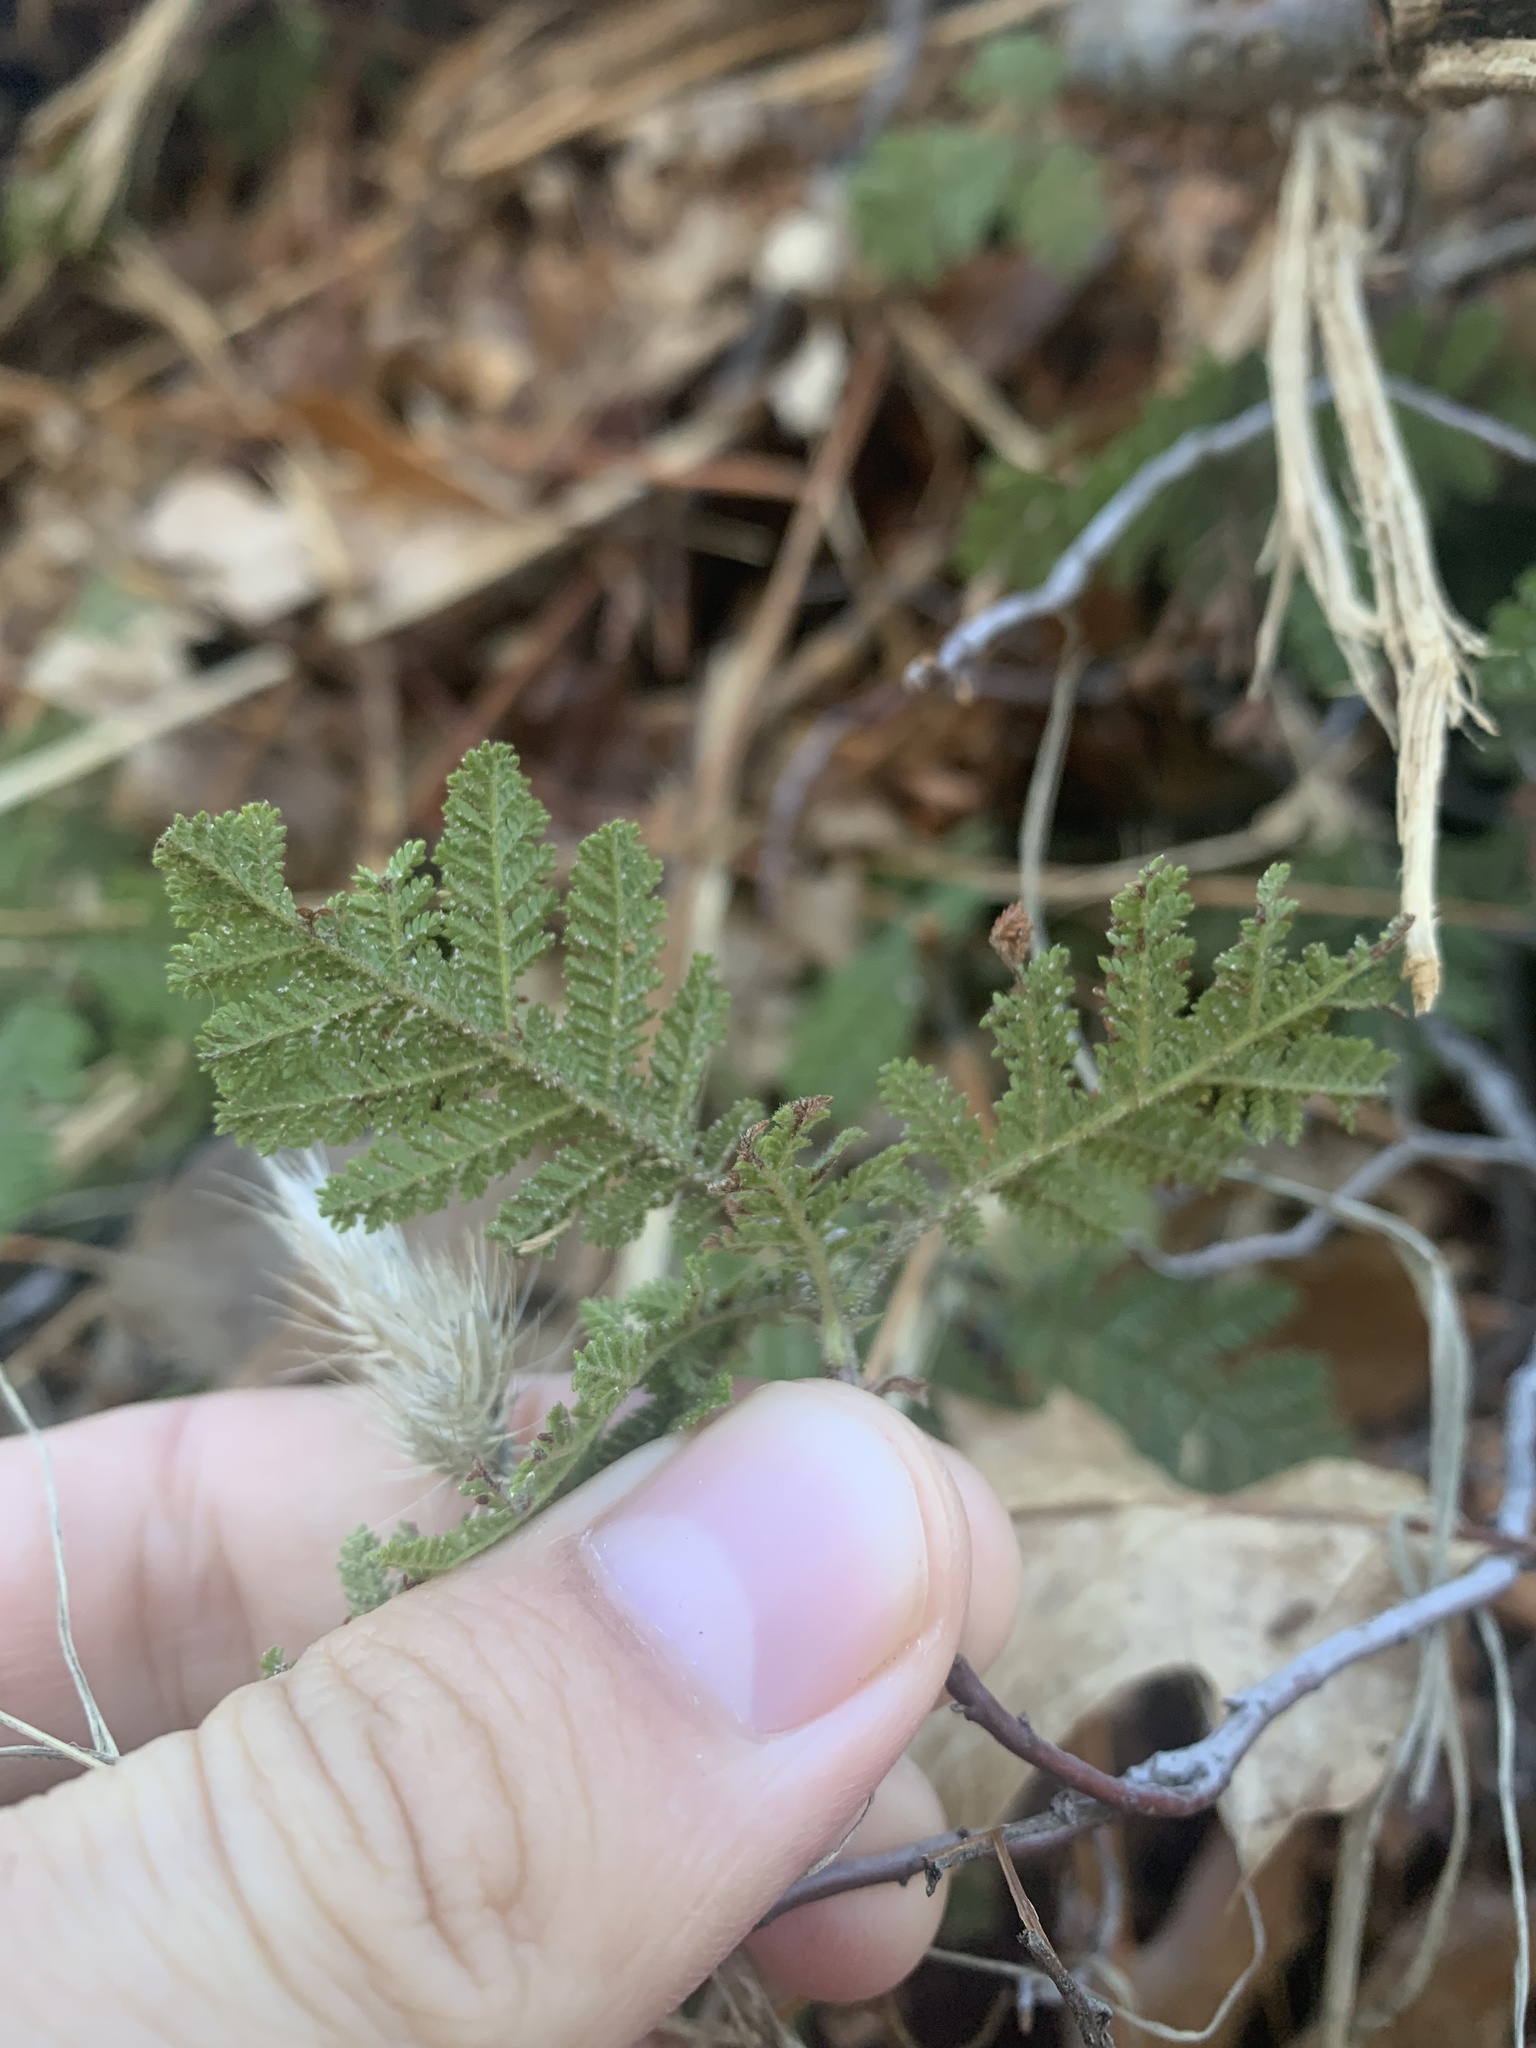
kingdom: Plantae
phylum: Tracheophyta
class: Magnoliopsida
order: Rosales
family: Rosaceae
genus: Chamaebatia
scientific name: Chamaebatia foliolosa
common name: Mountain misery
